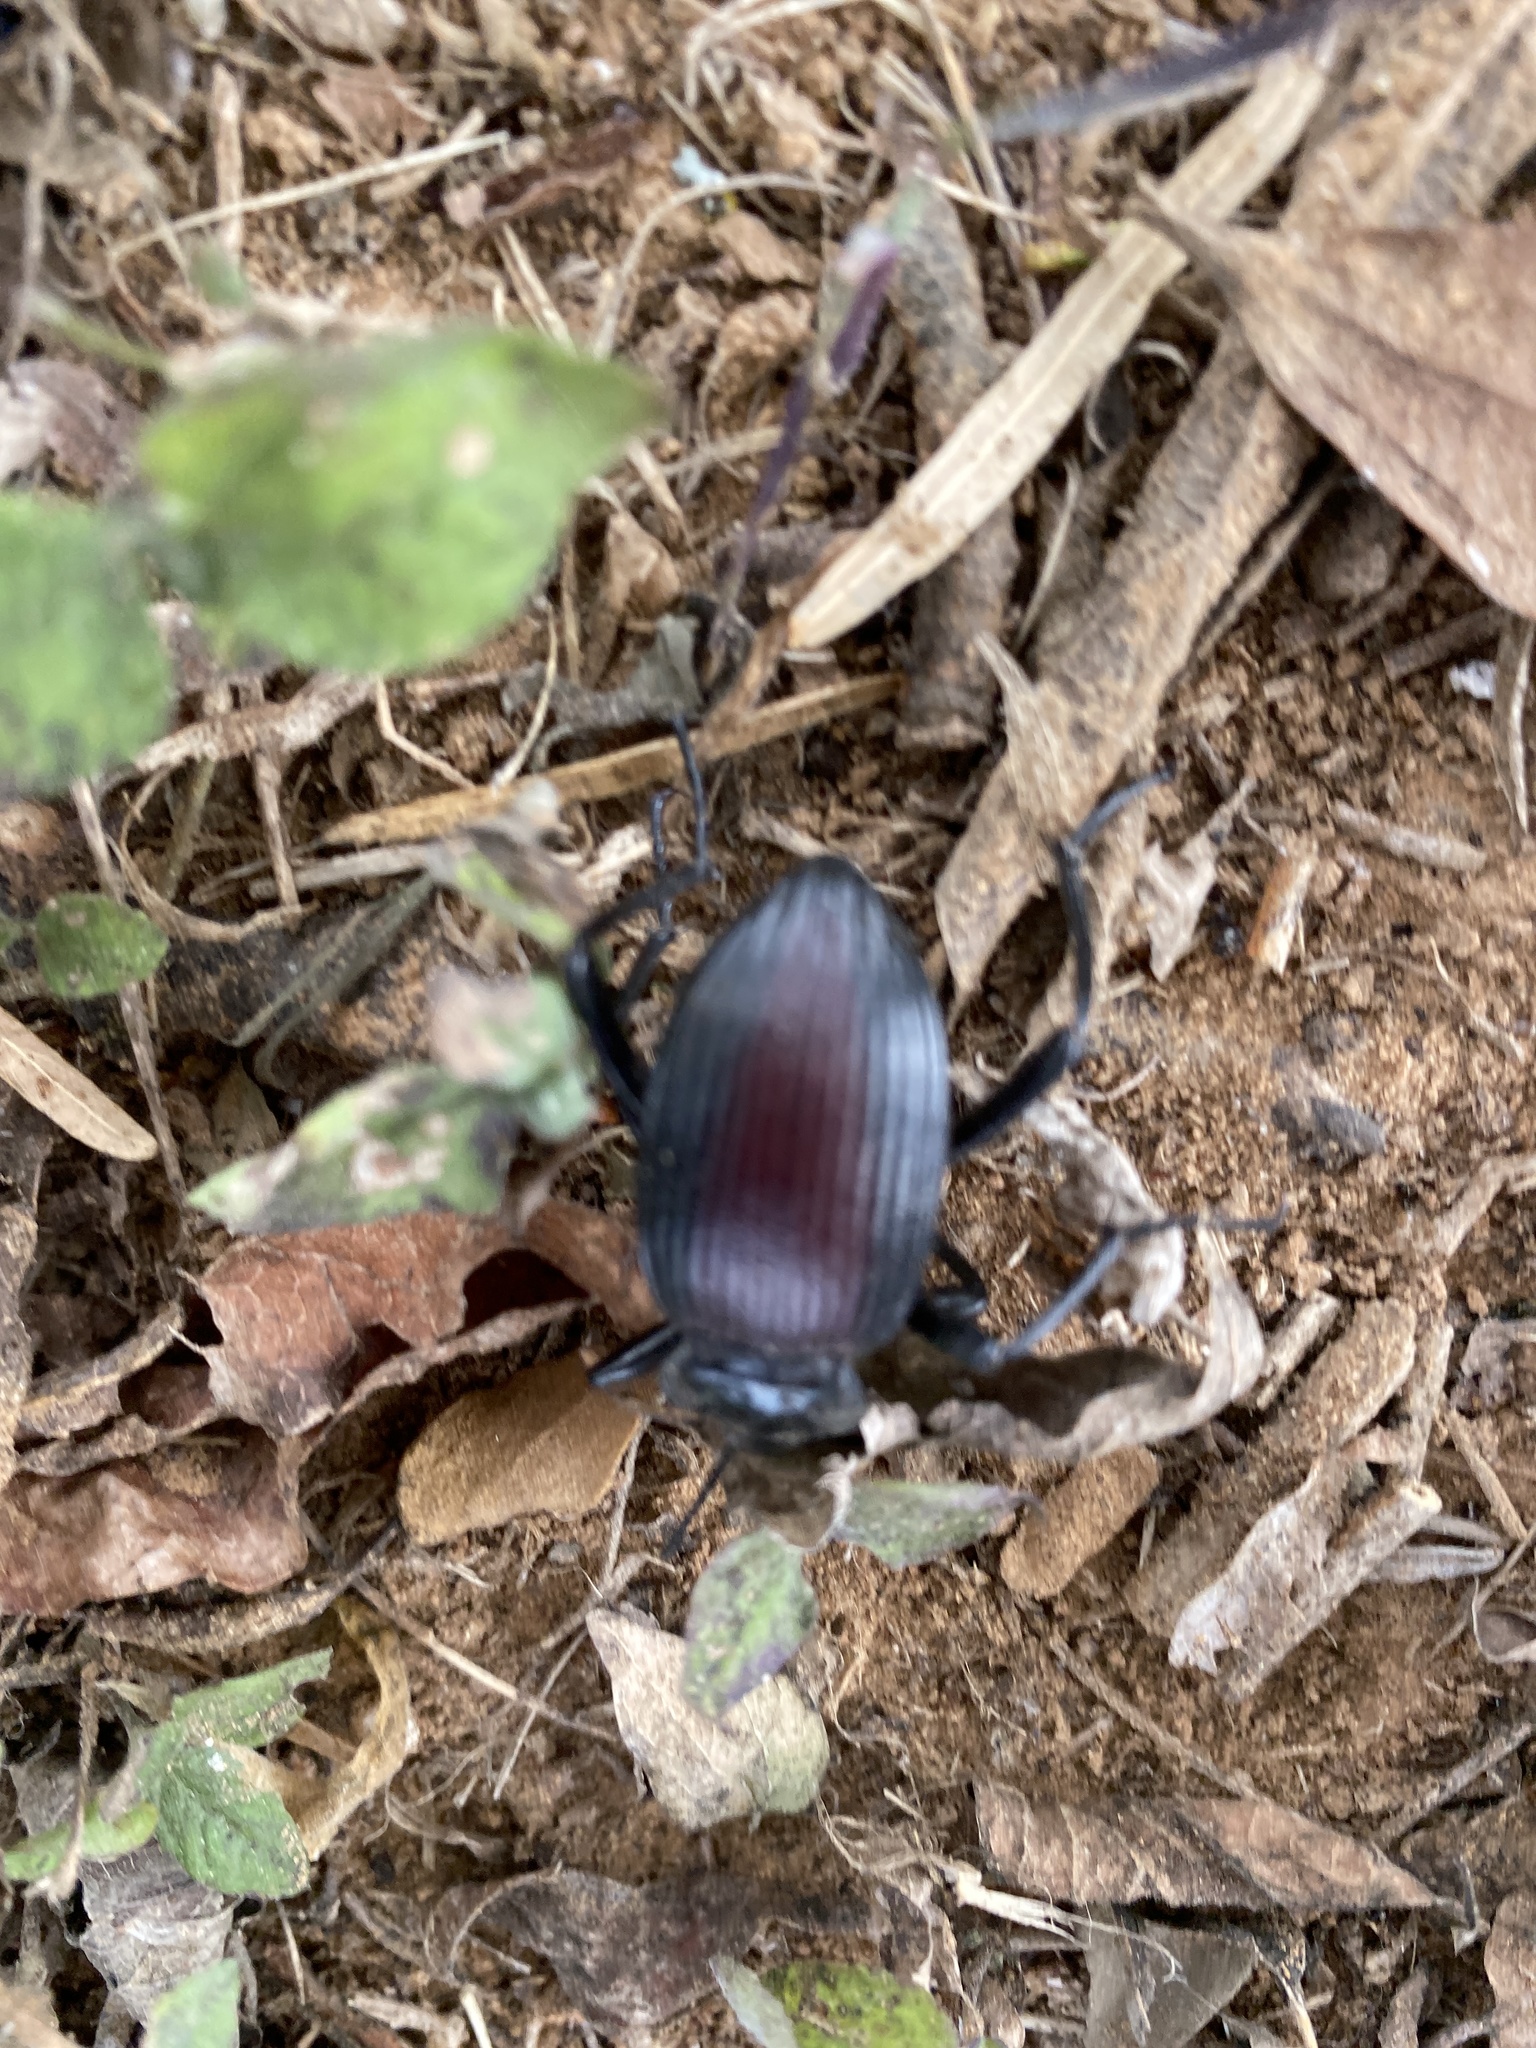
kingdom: Animalia
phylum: Arthropoda
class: Insecta
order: Coleoptera
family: Tenebrionidae
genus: Eleodes
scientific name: Eleodes acuta
